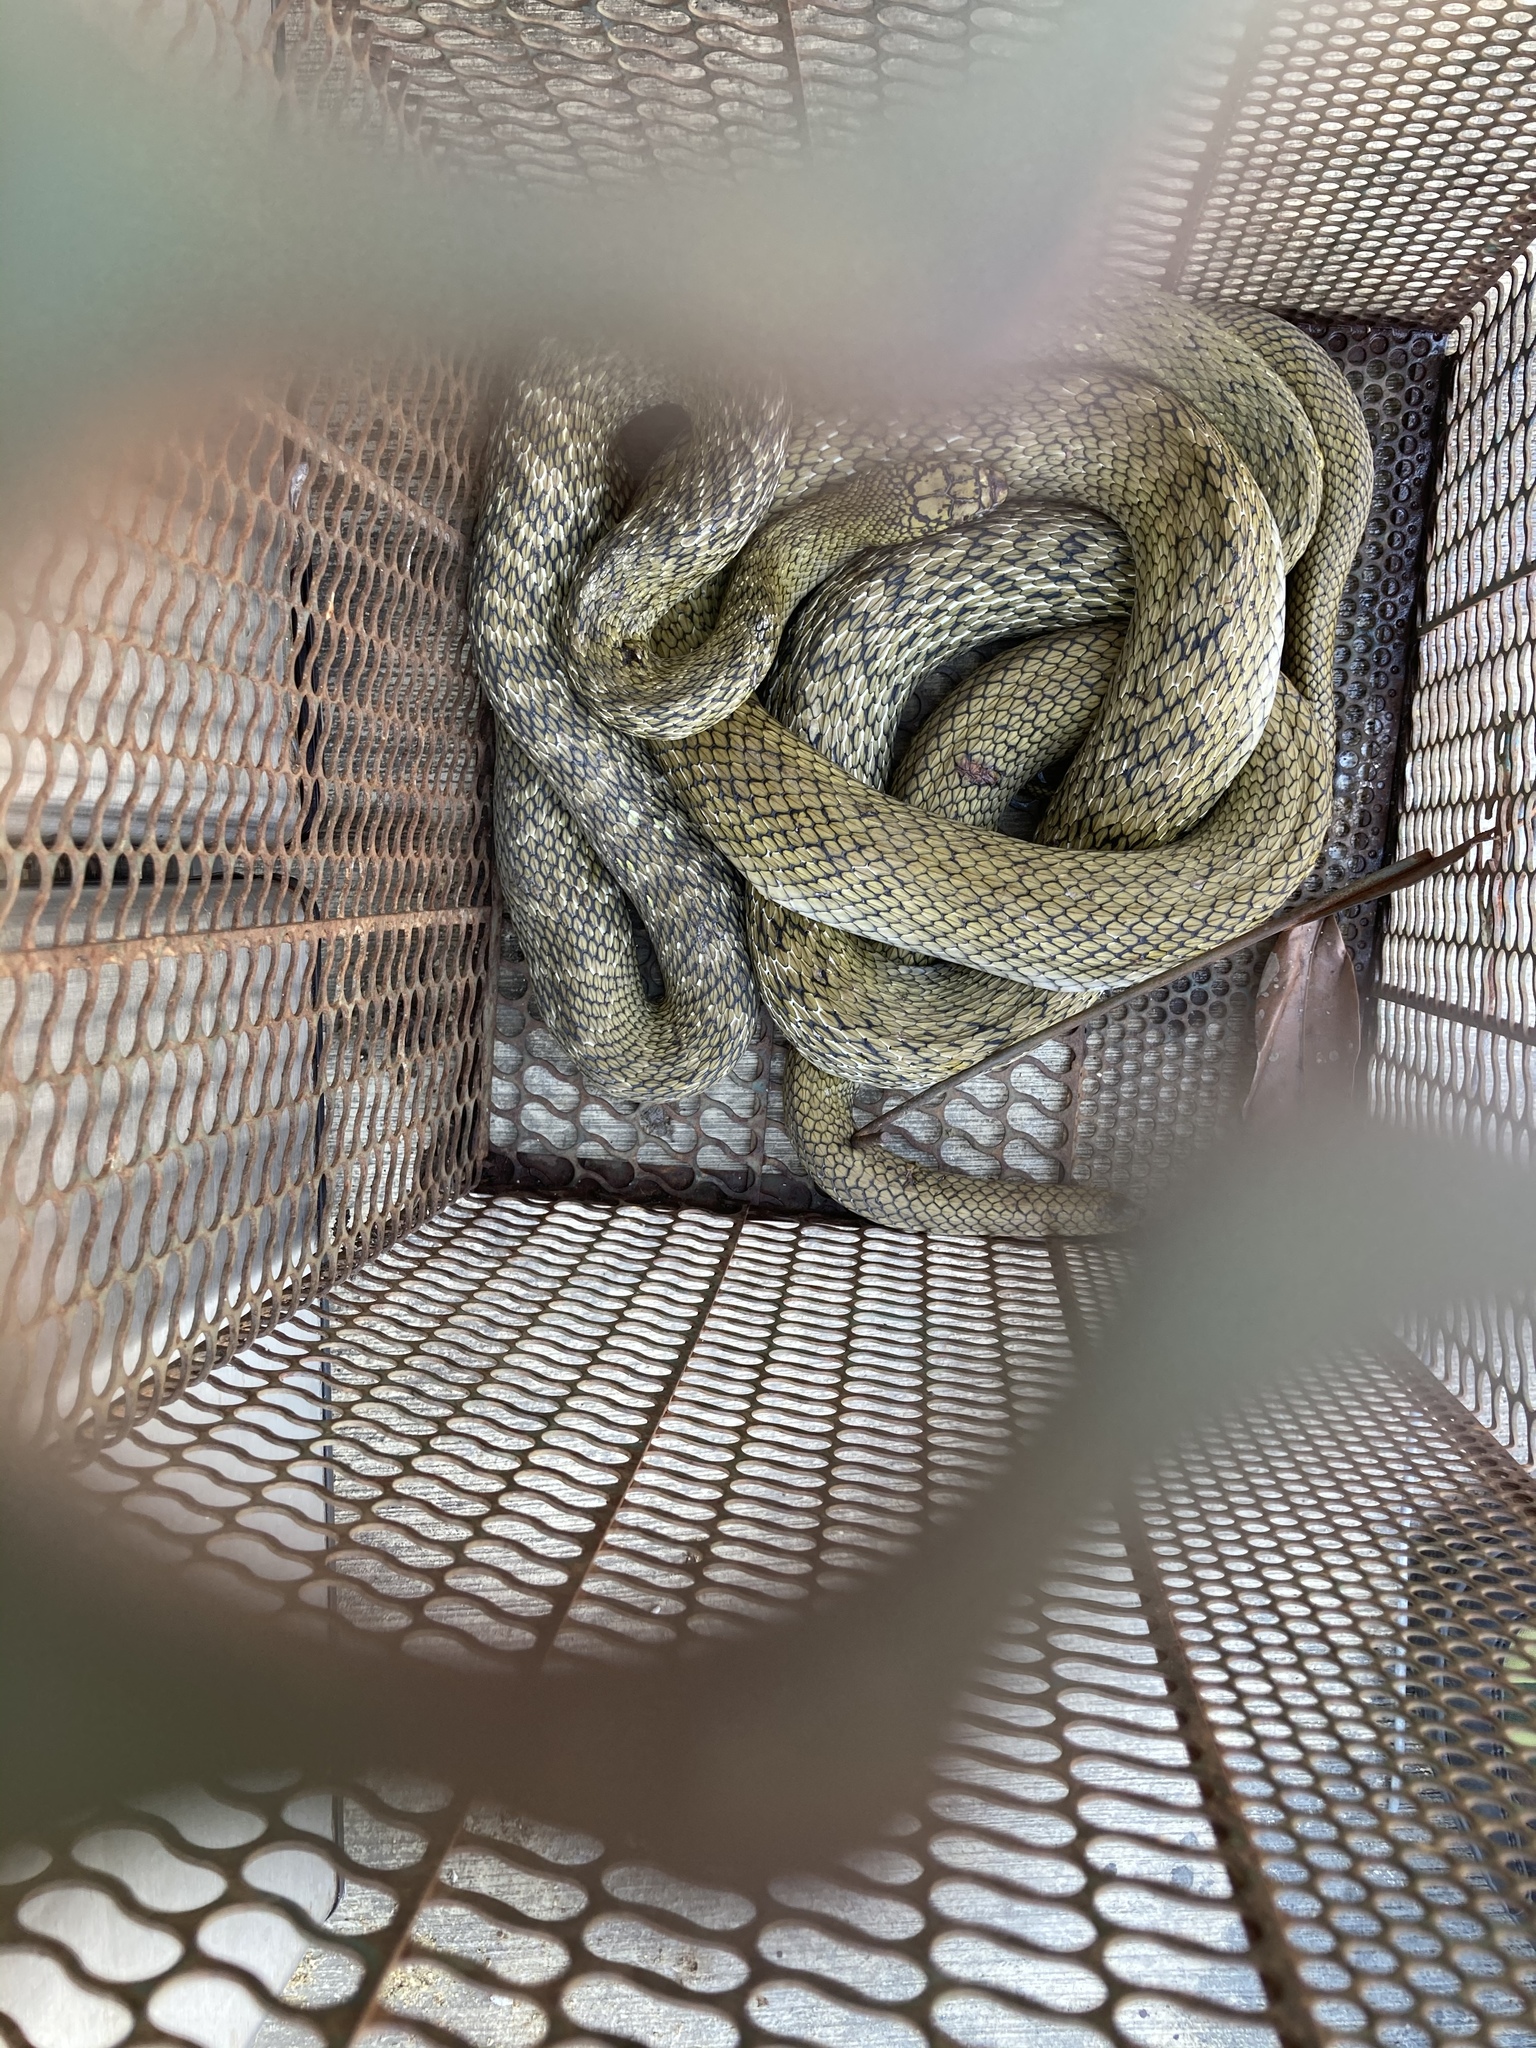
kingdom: Animalia
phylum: Chordata
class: Squamata
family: Colubridae
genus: Elaphe
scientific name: Elaphe carinata
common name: Taiwan stink snake
